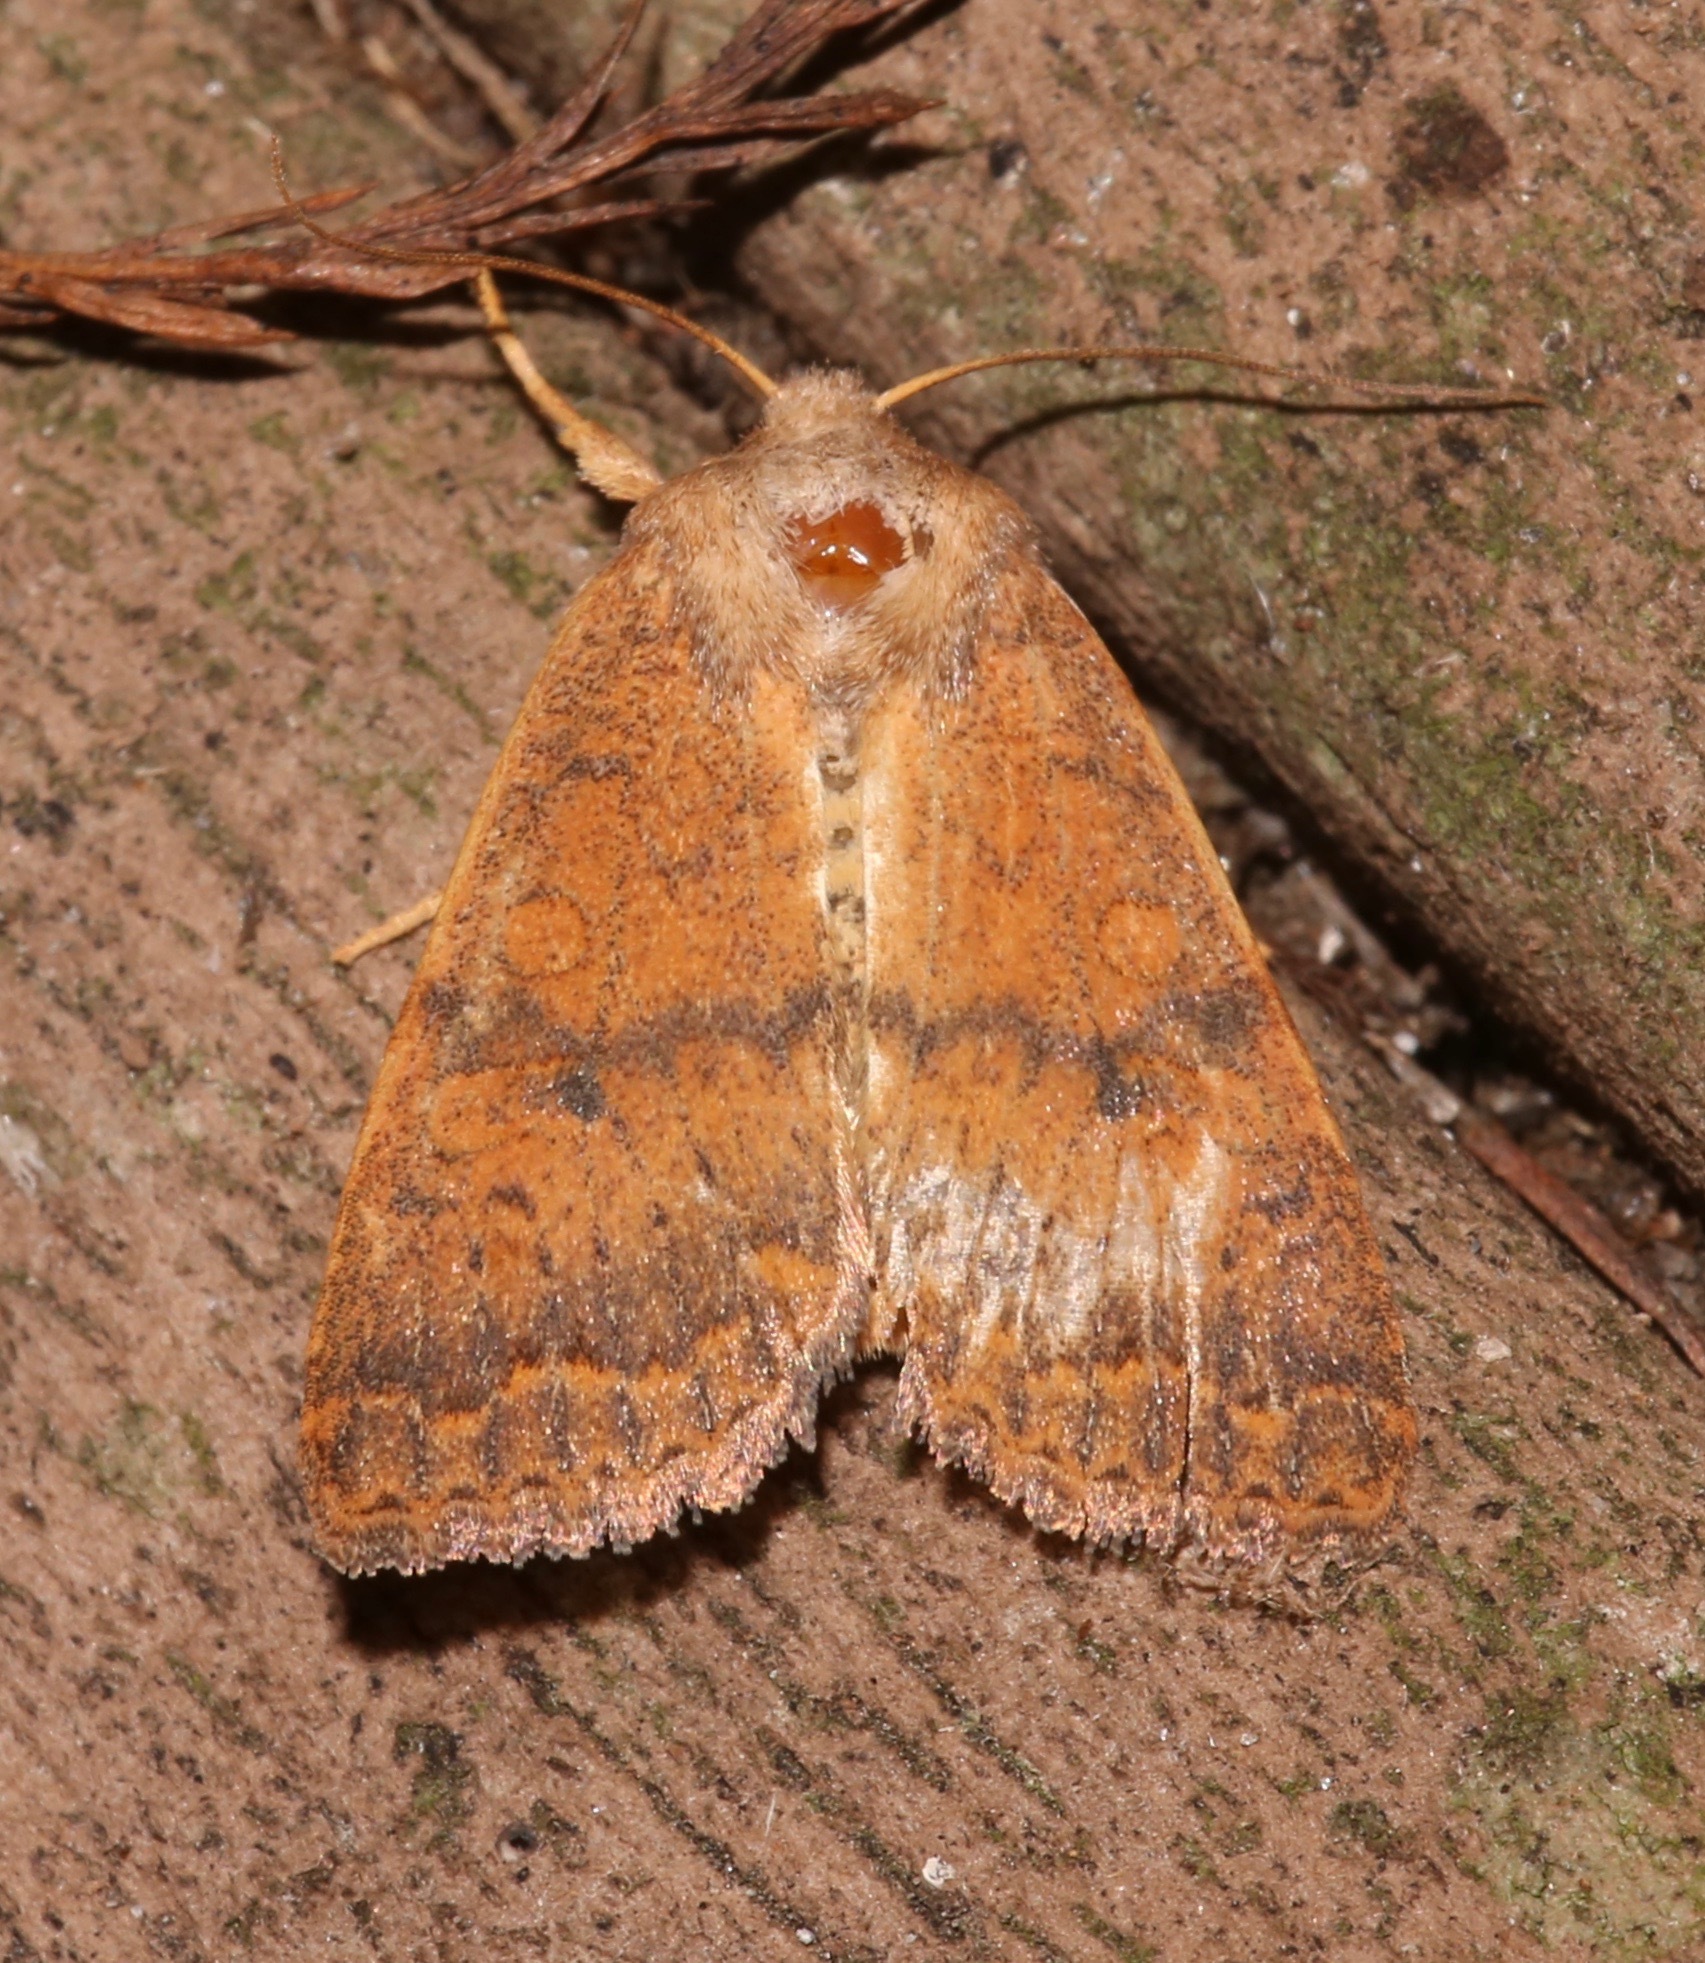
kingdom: Animalia
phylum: Arthropoda
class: Insecta
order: Lepidoptera
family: Noctuidae
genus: Agrochola
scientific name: Agrochola bicolorago
